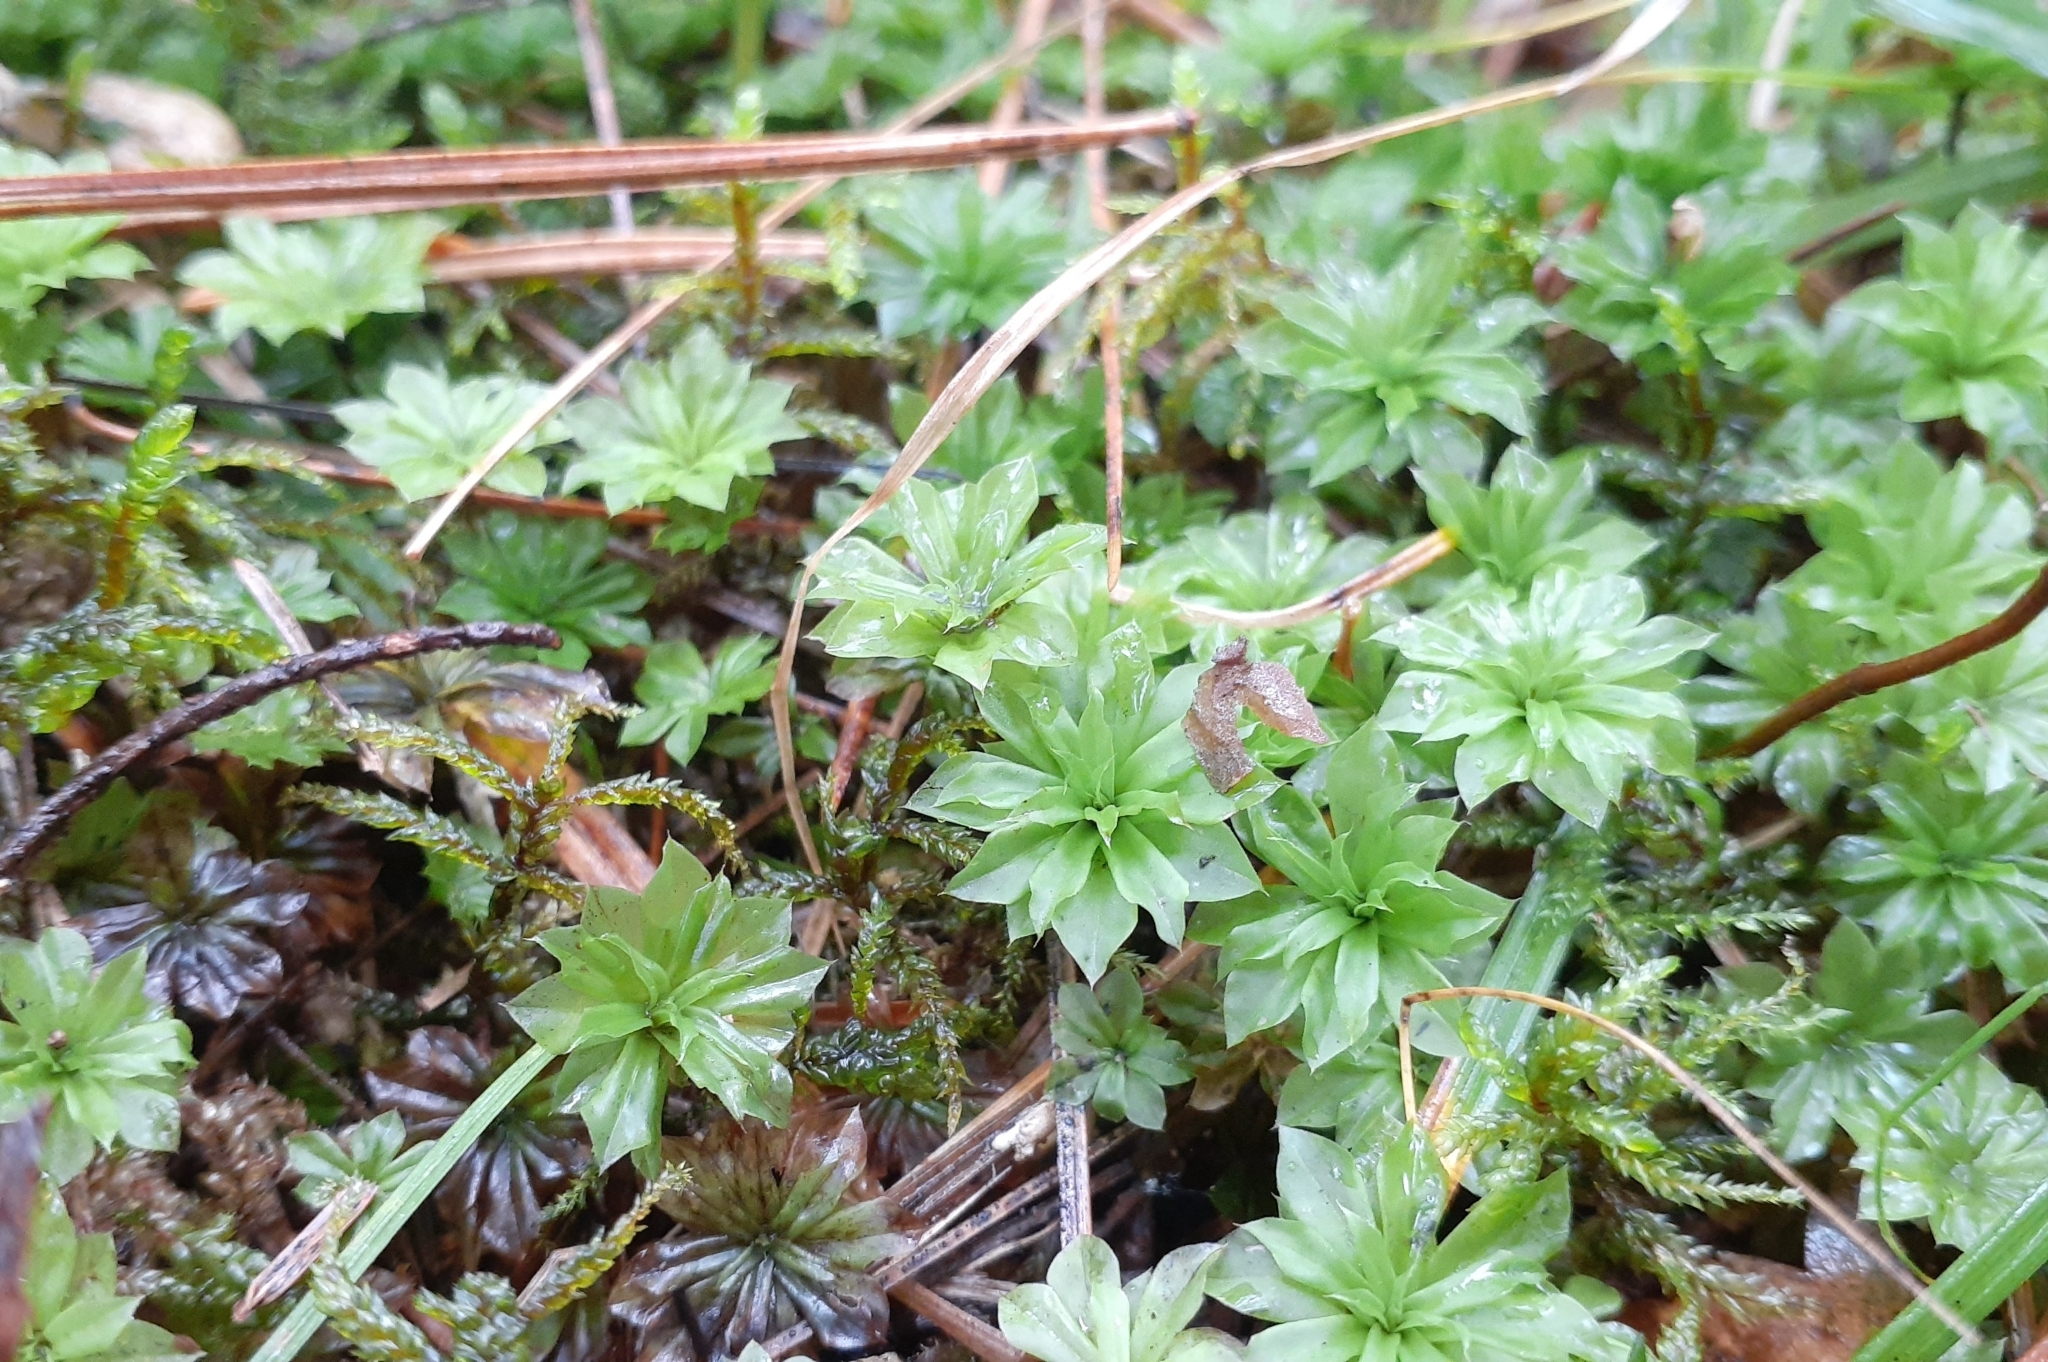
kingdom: Plantae
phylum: Bryophyta
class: Bryopsida
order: Bryales
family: Bryaceae
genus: Rhodobryum
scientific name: Rhodobryum ontariense
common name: Ontario rhodobryum moss
